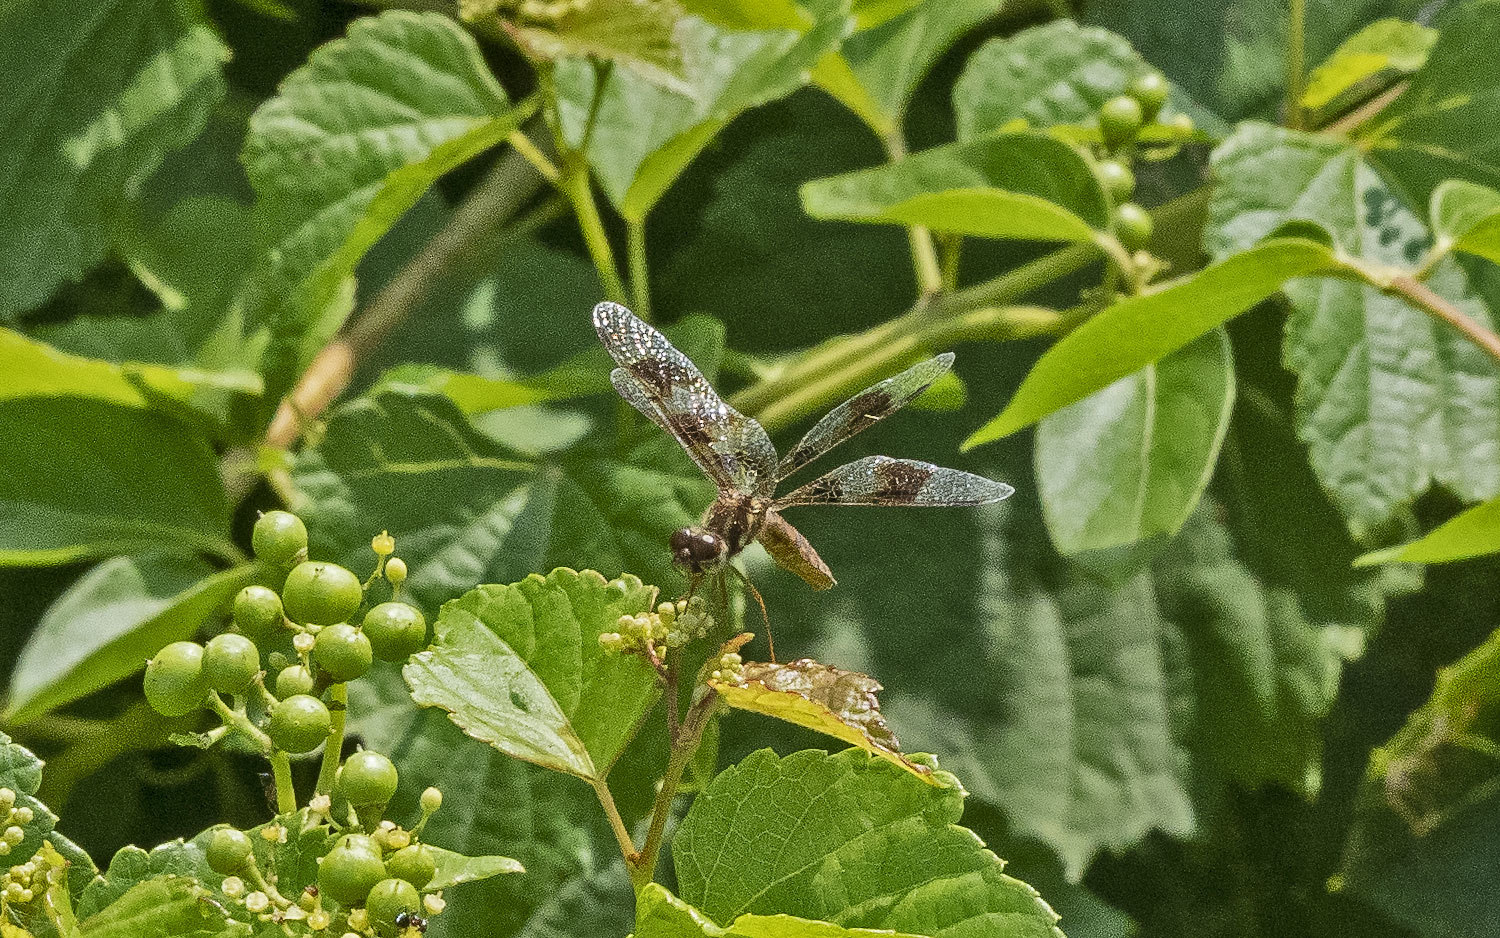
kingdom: Animalia
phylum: Arthropoda
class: Insecta
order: Odonata
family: Libellulidae
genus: Perithemis
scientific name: Perithemis tenera
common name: Eastern amberwing
